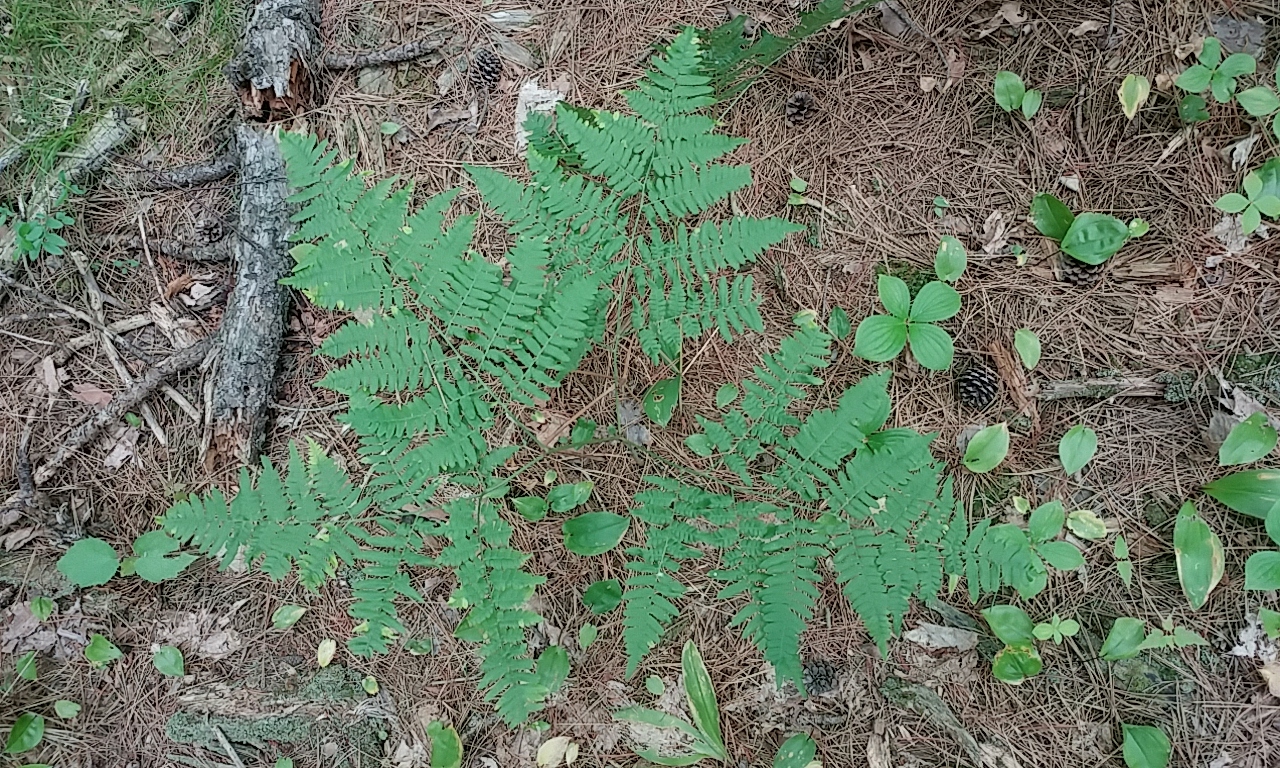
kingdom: Plantae
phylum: Tracheophyta
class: Polypodiopsida
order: Polypodiales
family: Dennstaedtiaceae
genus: Pteridium
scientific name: Pteridium aquilinum
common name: Bracken
